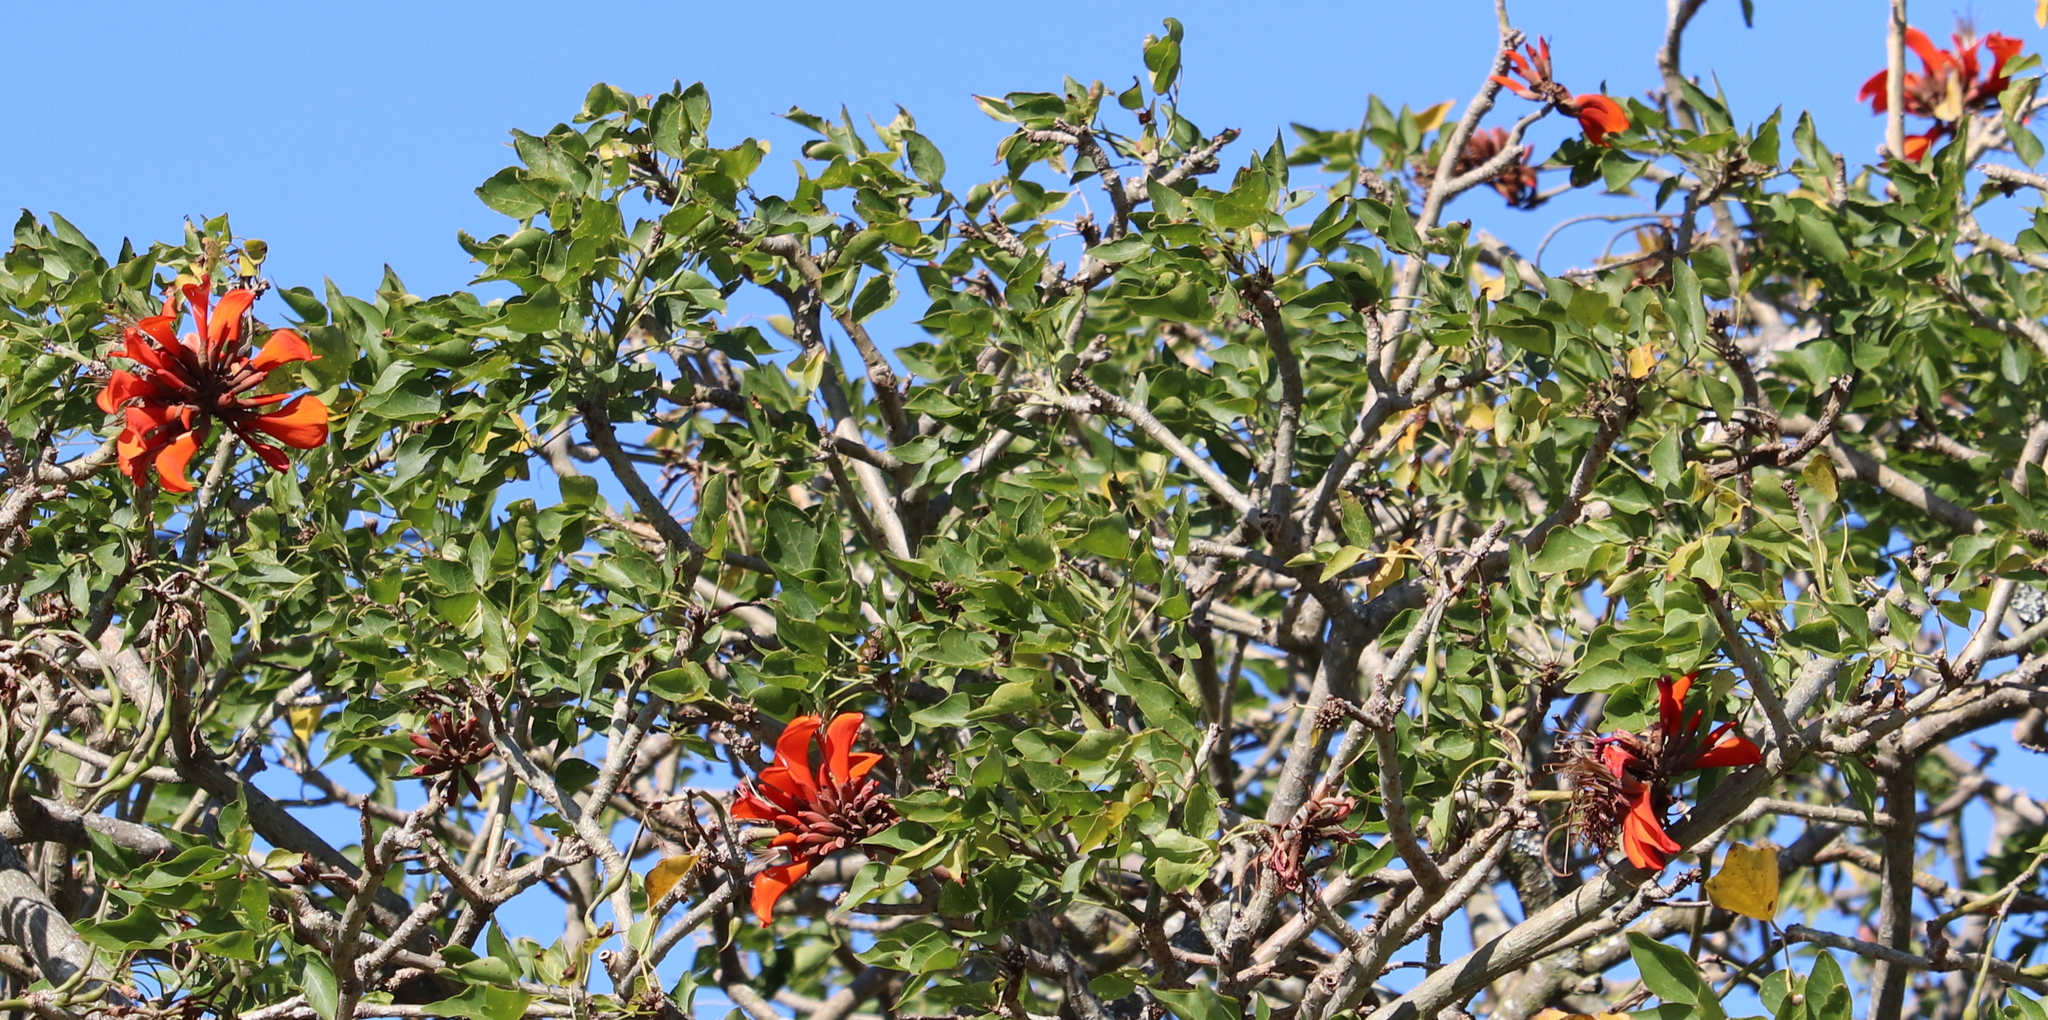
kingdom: Plantae
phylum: Tracheophyta
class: Magnoliopsida
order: Fabales
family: Fabaceae
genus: Erythrina
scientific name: Erythrina caffra
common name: Coast coral tree
